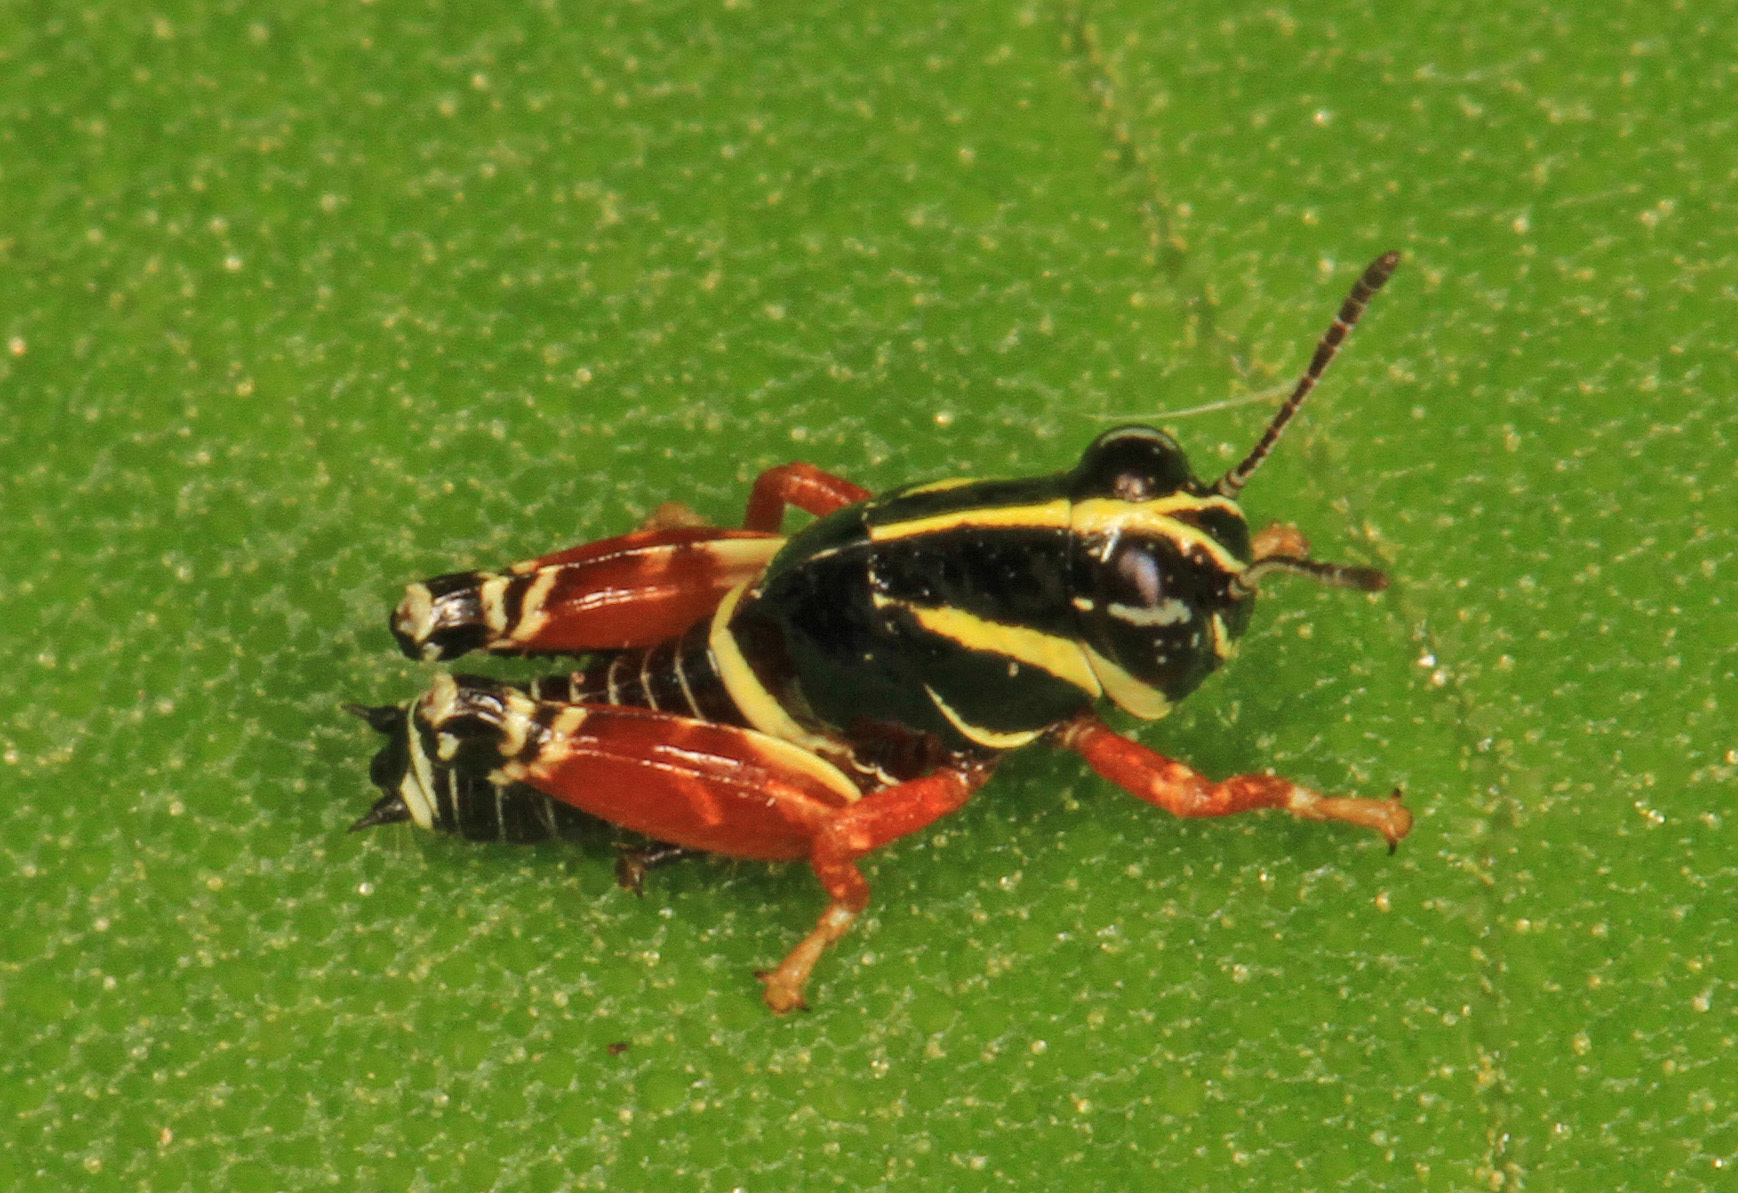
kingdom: Animalia
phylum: Arthropoda
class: Insecta
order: Orthoptera
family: Acrididae
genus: Aidemona
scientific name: Aidemona azteca
